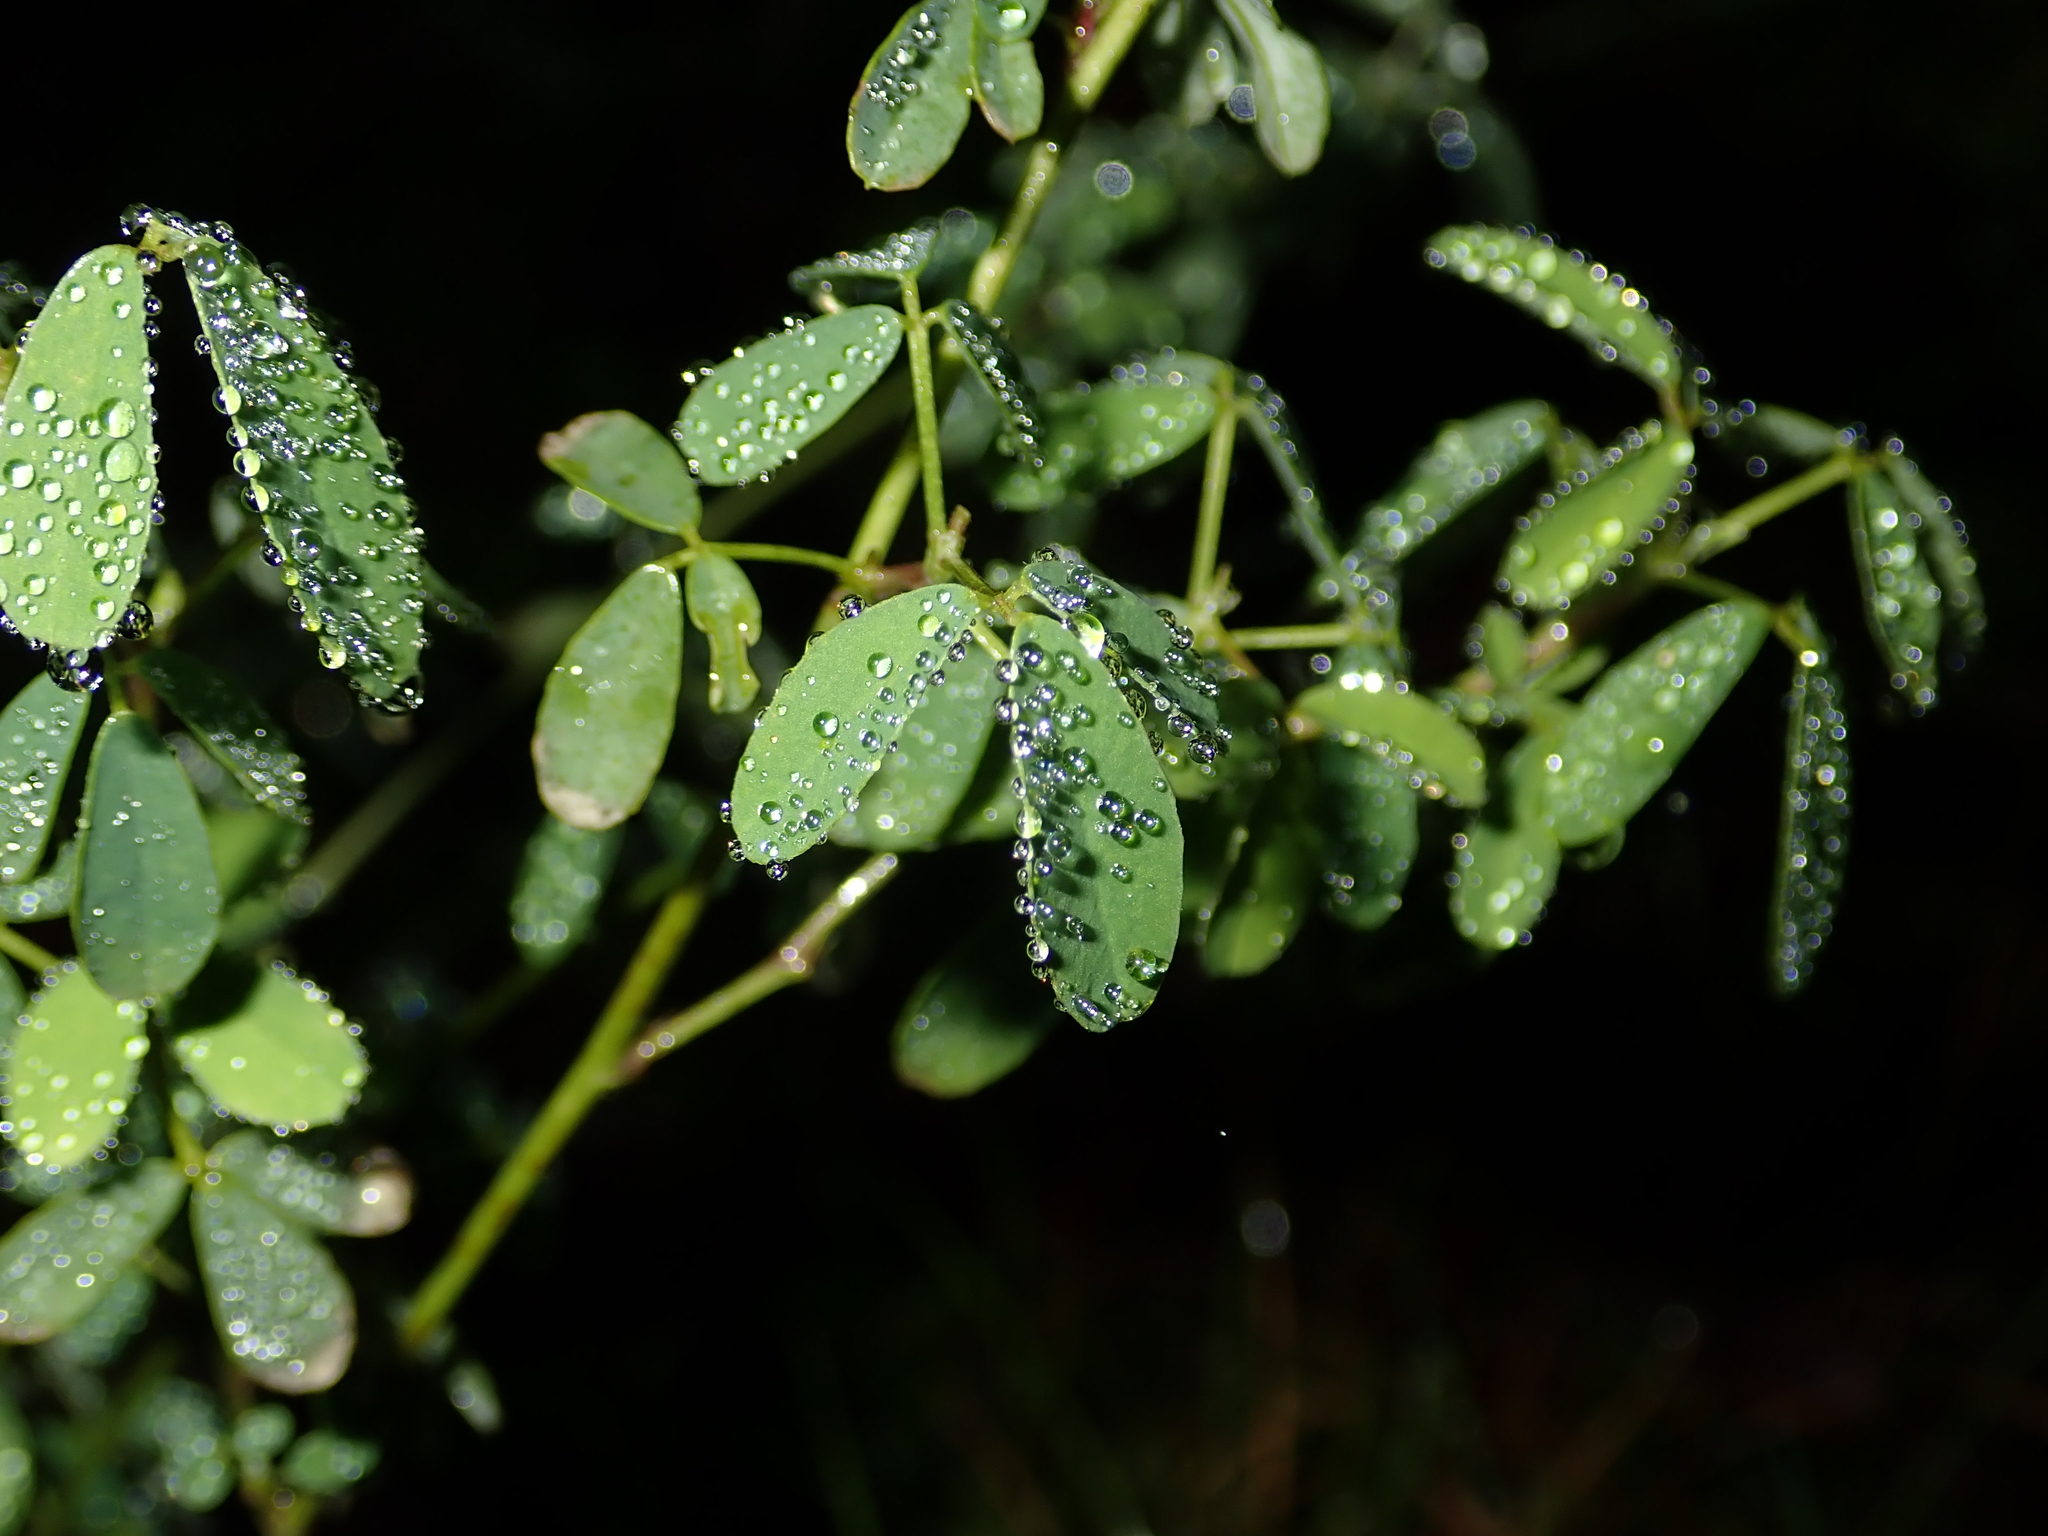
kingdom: Plantae
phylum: Tracheophyta
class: Magnoliopsida
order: Fabales
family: Fabaceae
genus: Melilotus
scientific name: Melilotus albus
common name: White melilot
